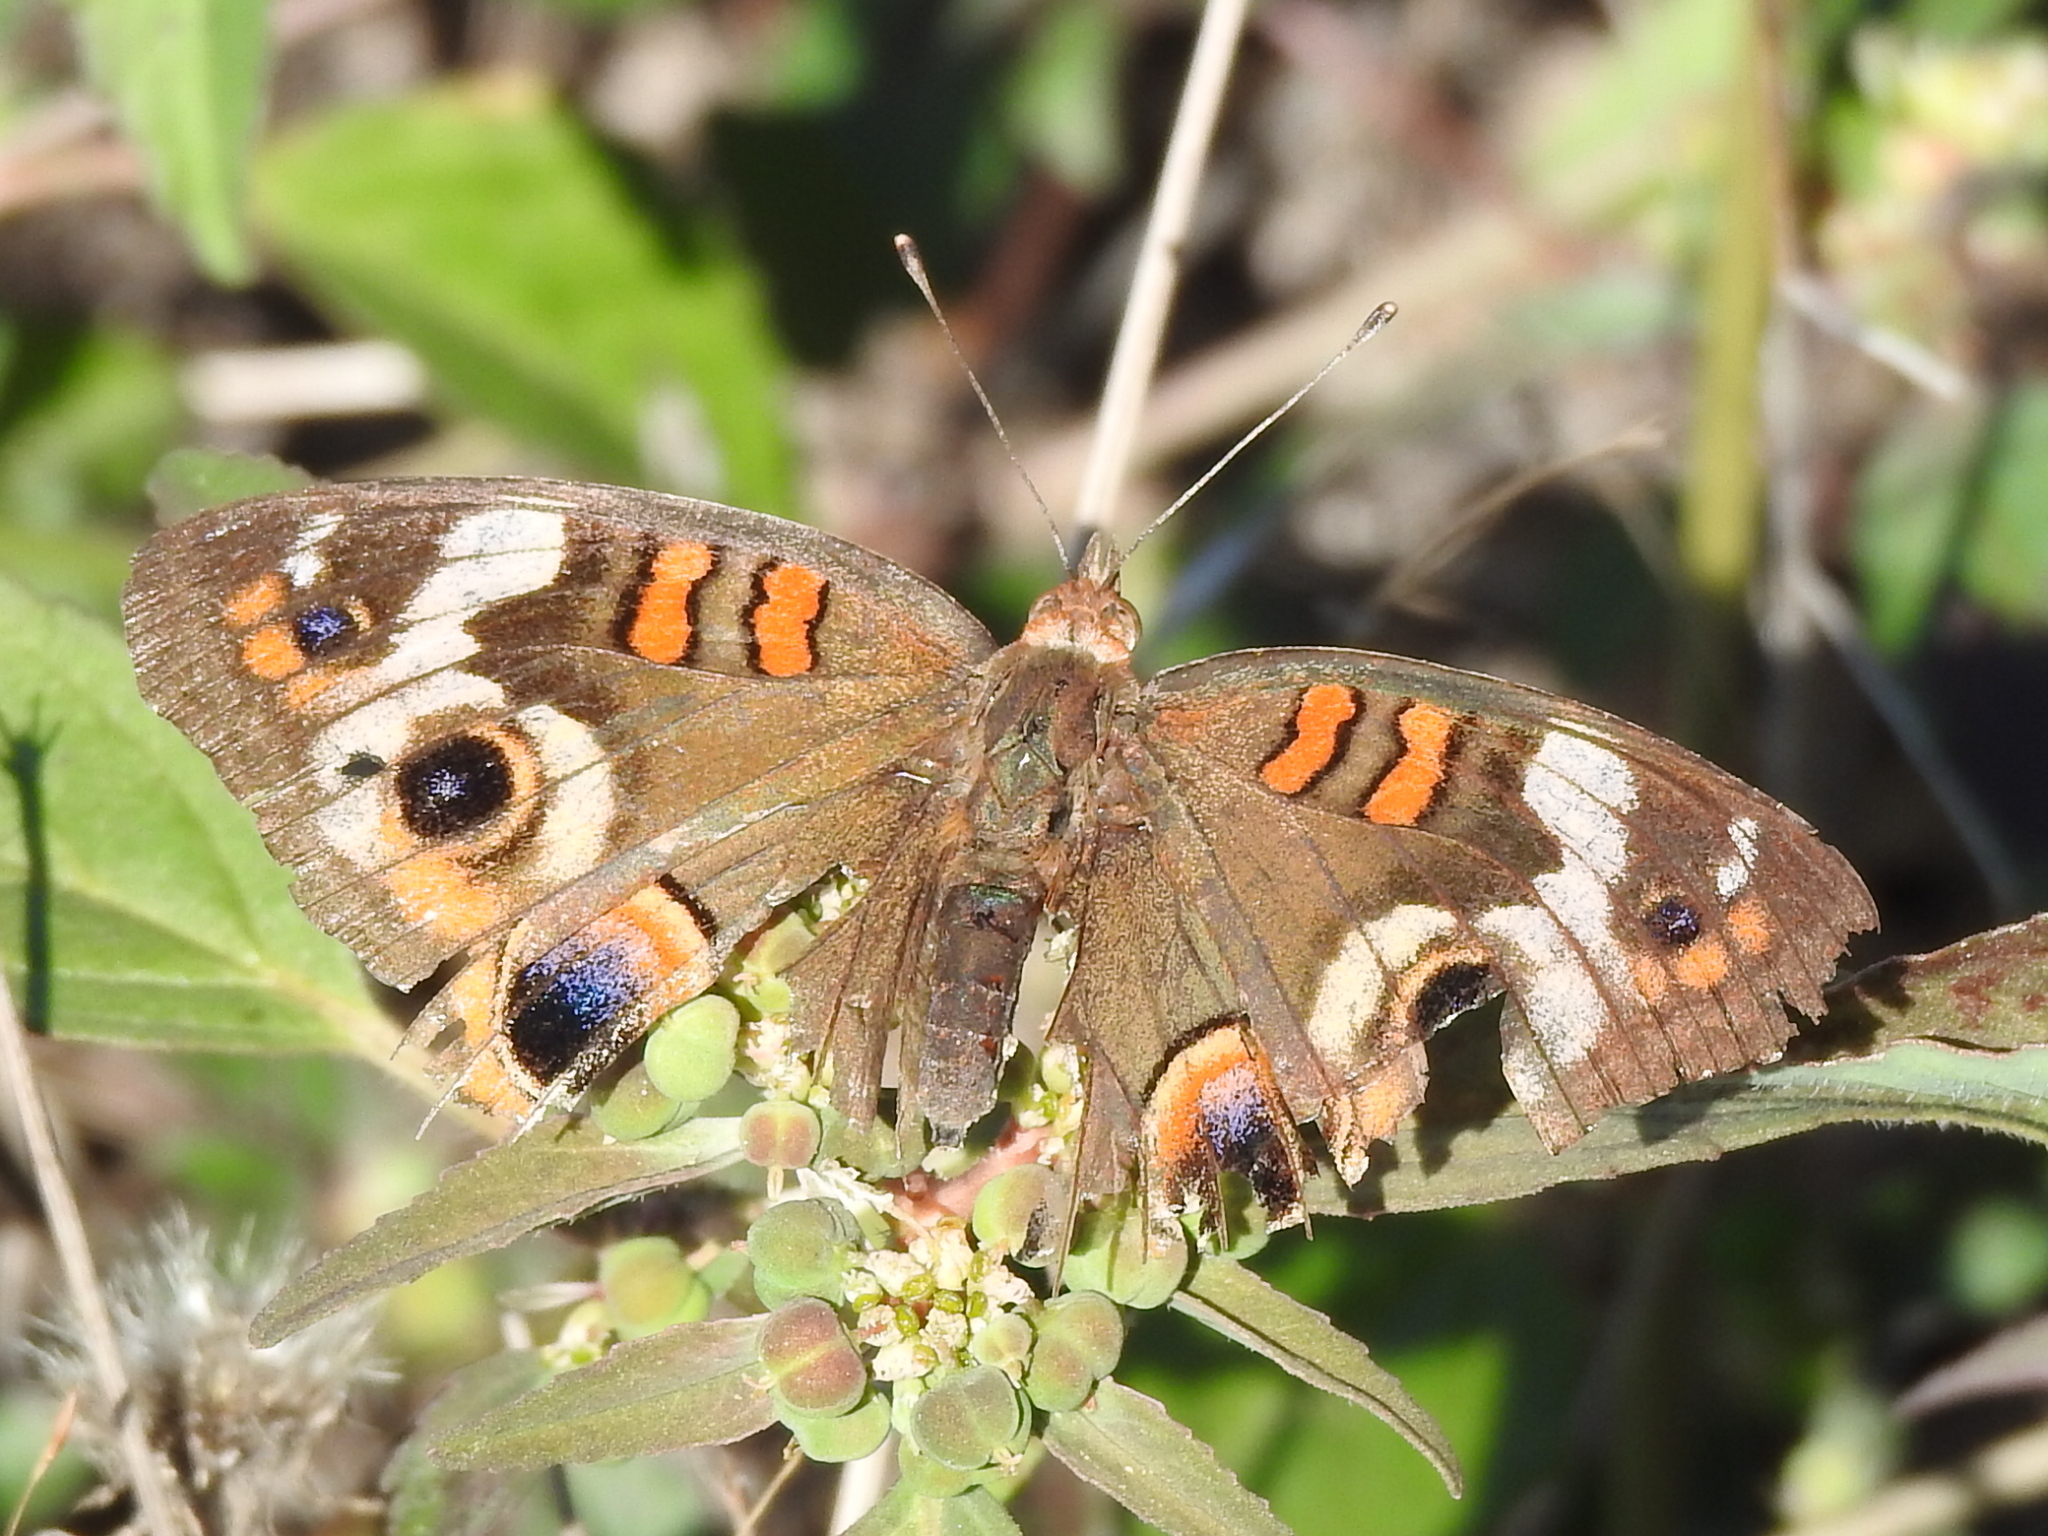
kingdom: Animalia
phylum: Arthropoda
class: Insecta
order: Lepidoptera
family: Nymphalidae
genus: Junonia
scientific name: Junonia coenia
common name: Common buckeye
